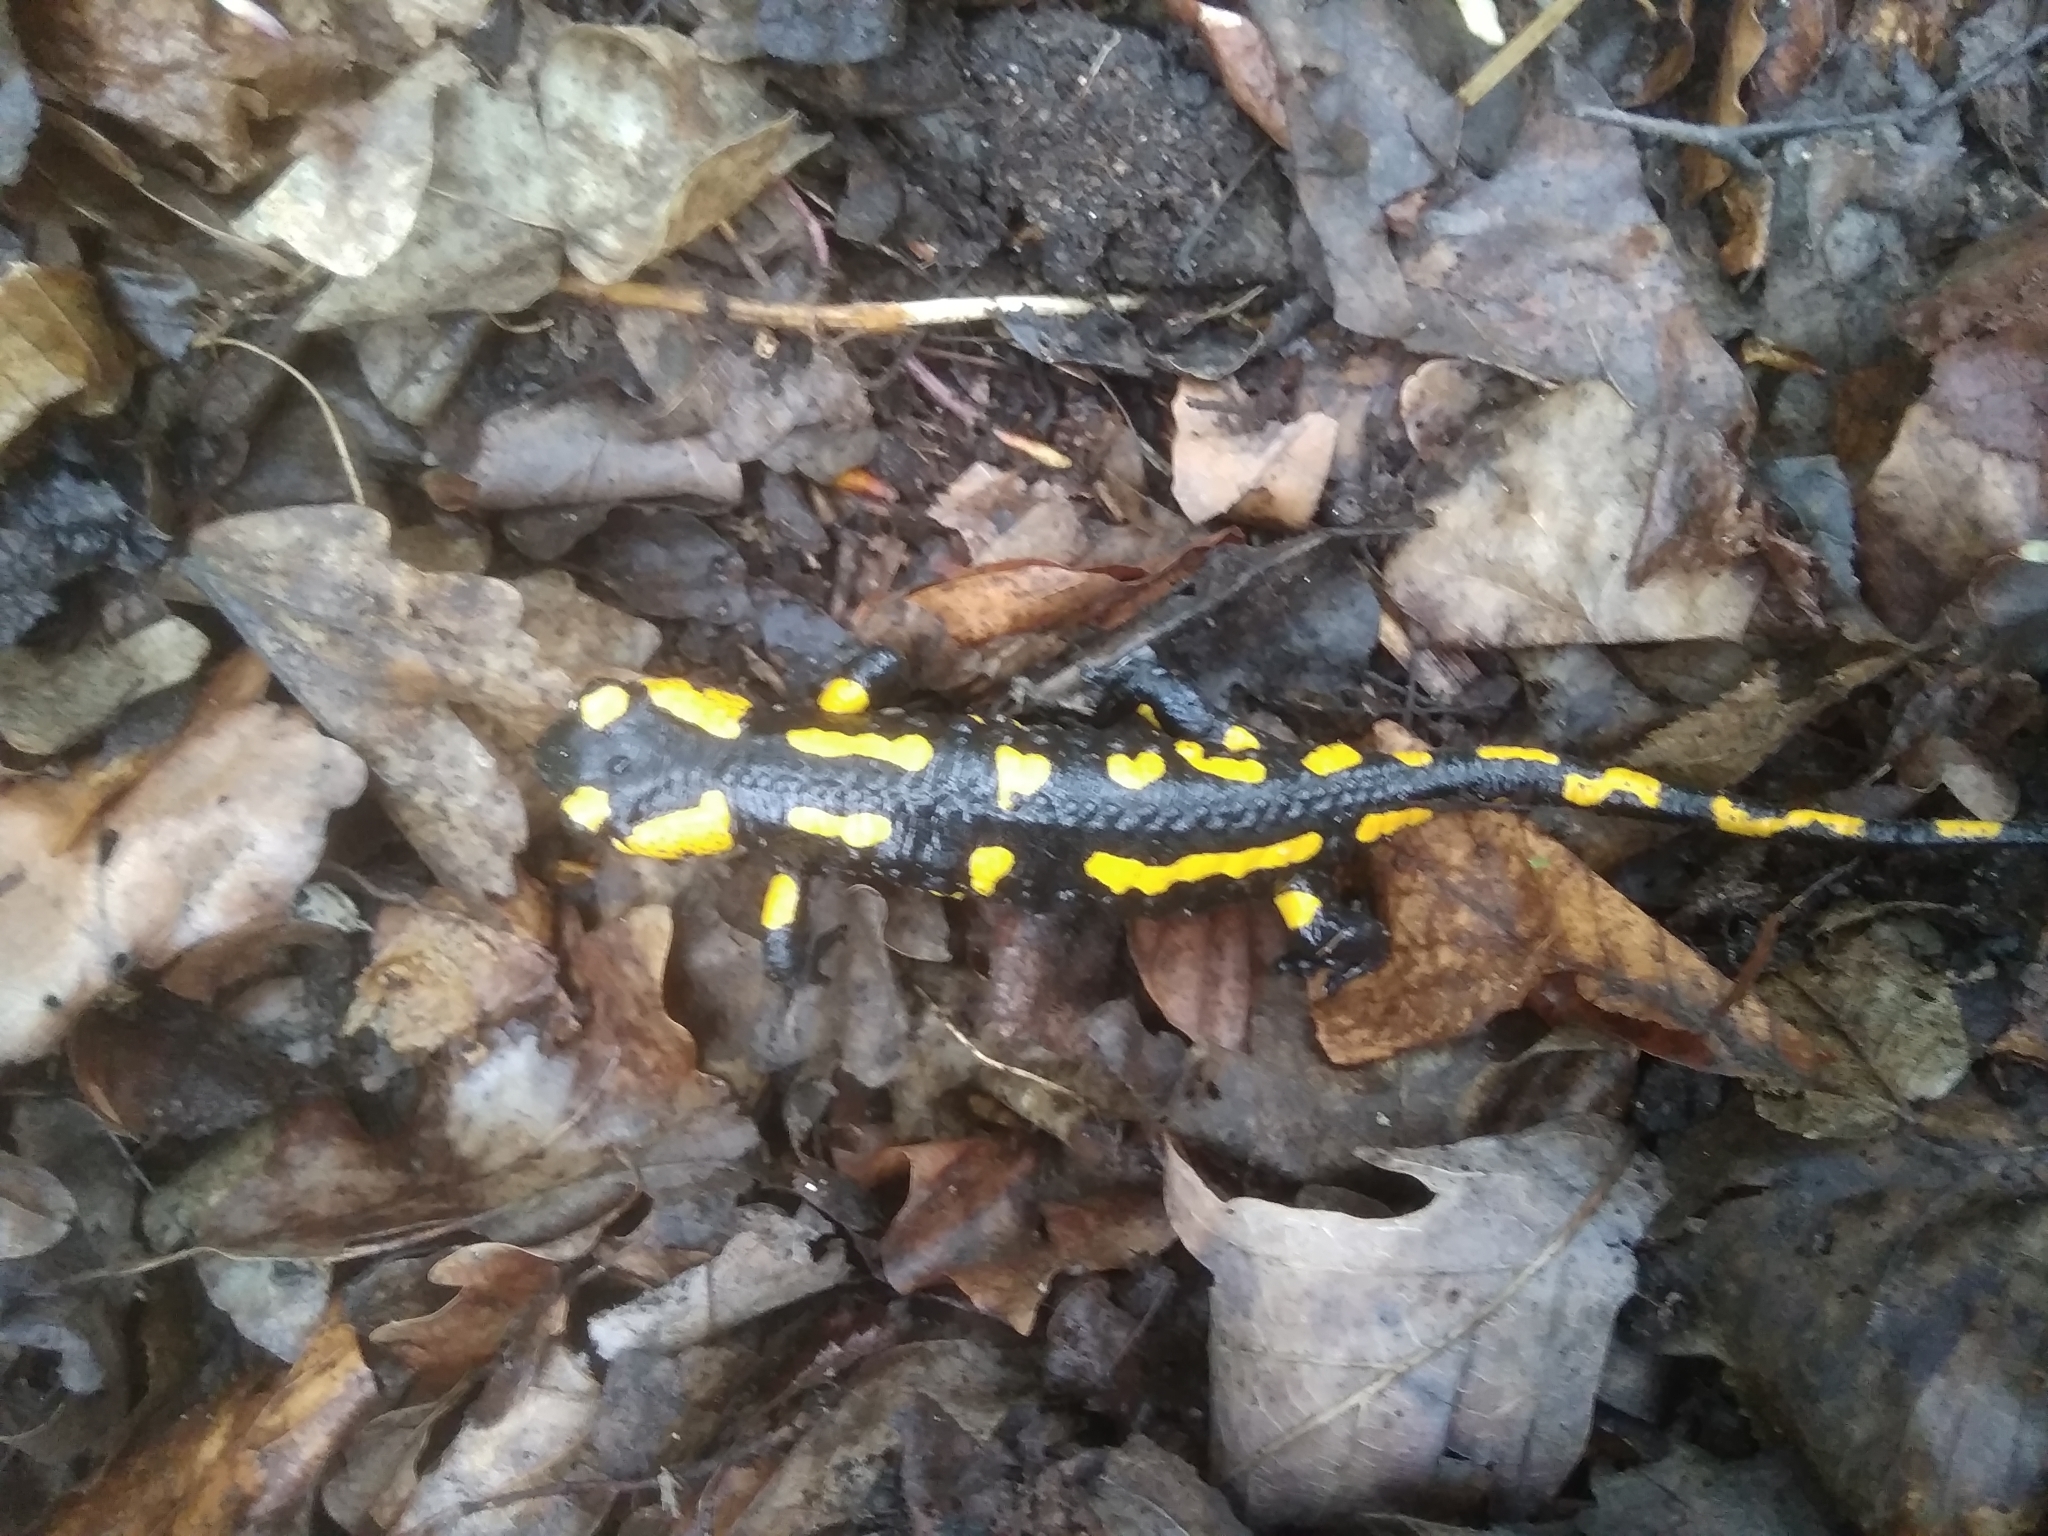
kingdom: Animalia
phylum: Chordata
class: Amphibia
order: Caudata
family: Salamandridae
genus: Salamandra
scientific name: Salamandra salamandra
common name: Fire salamander
